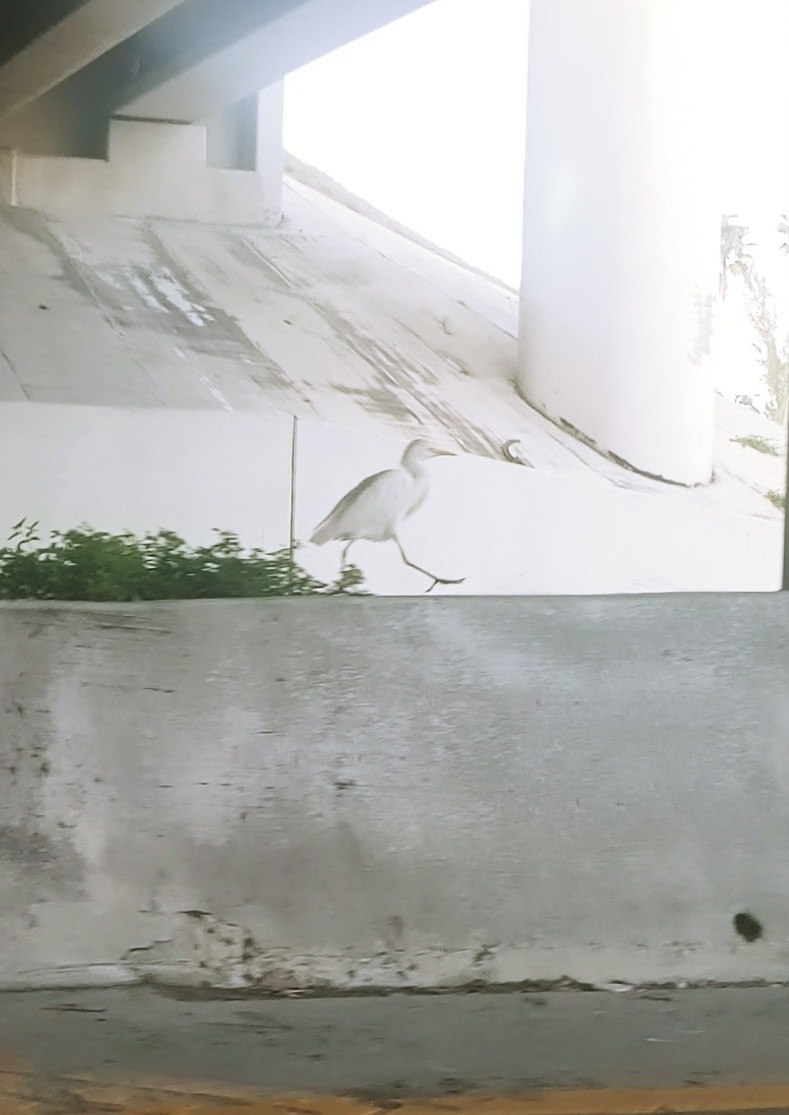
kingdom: Animalia
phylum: Chordata
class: Aves
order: Pelecaniformes
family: Ardeidae
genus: Bubulcus
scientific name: Bubulcus ibis
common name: Cattle egret
